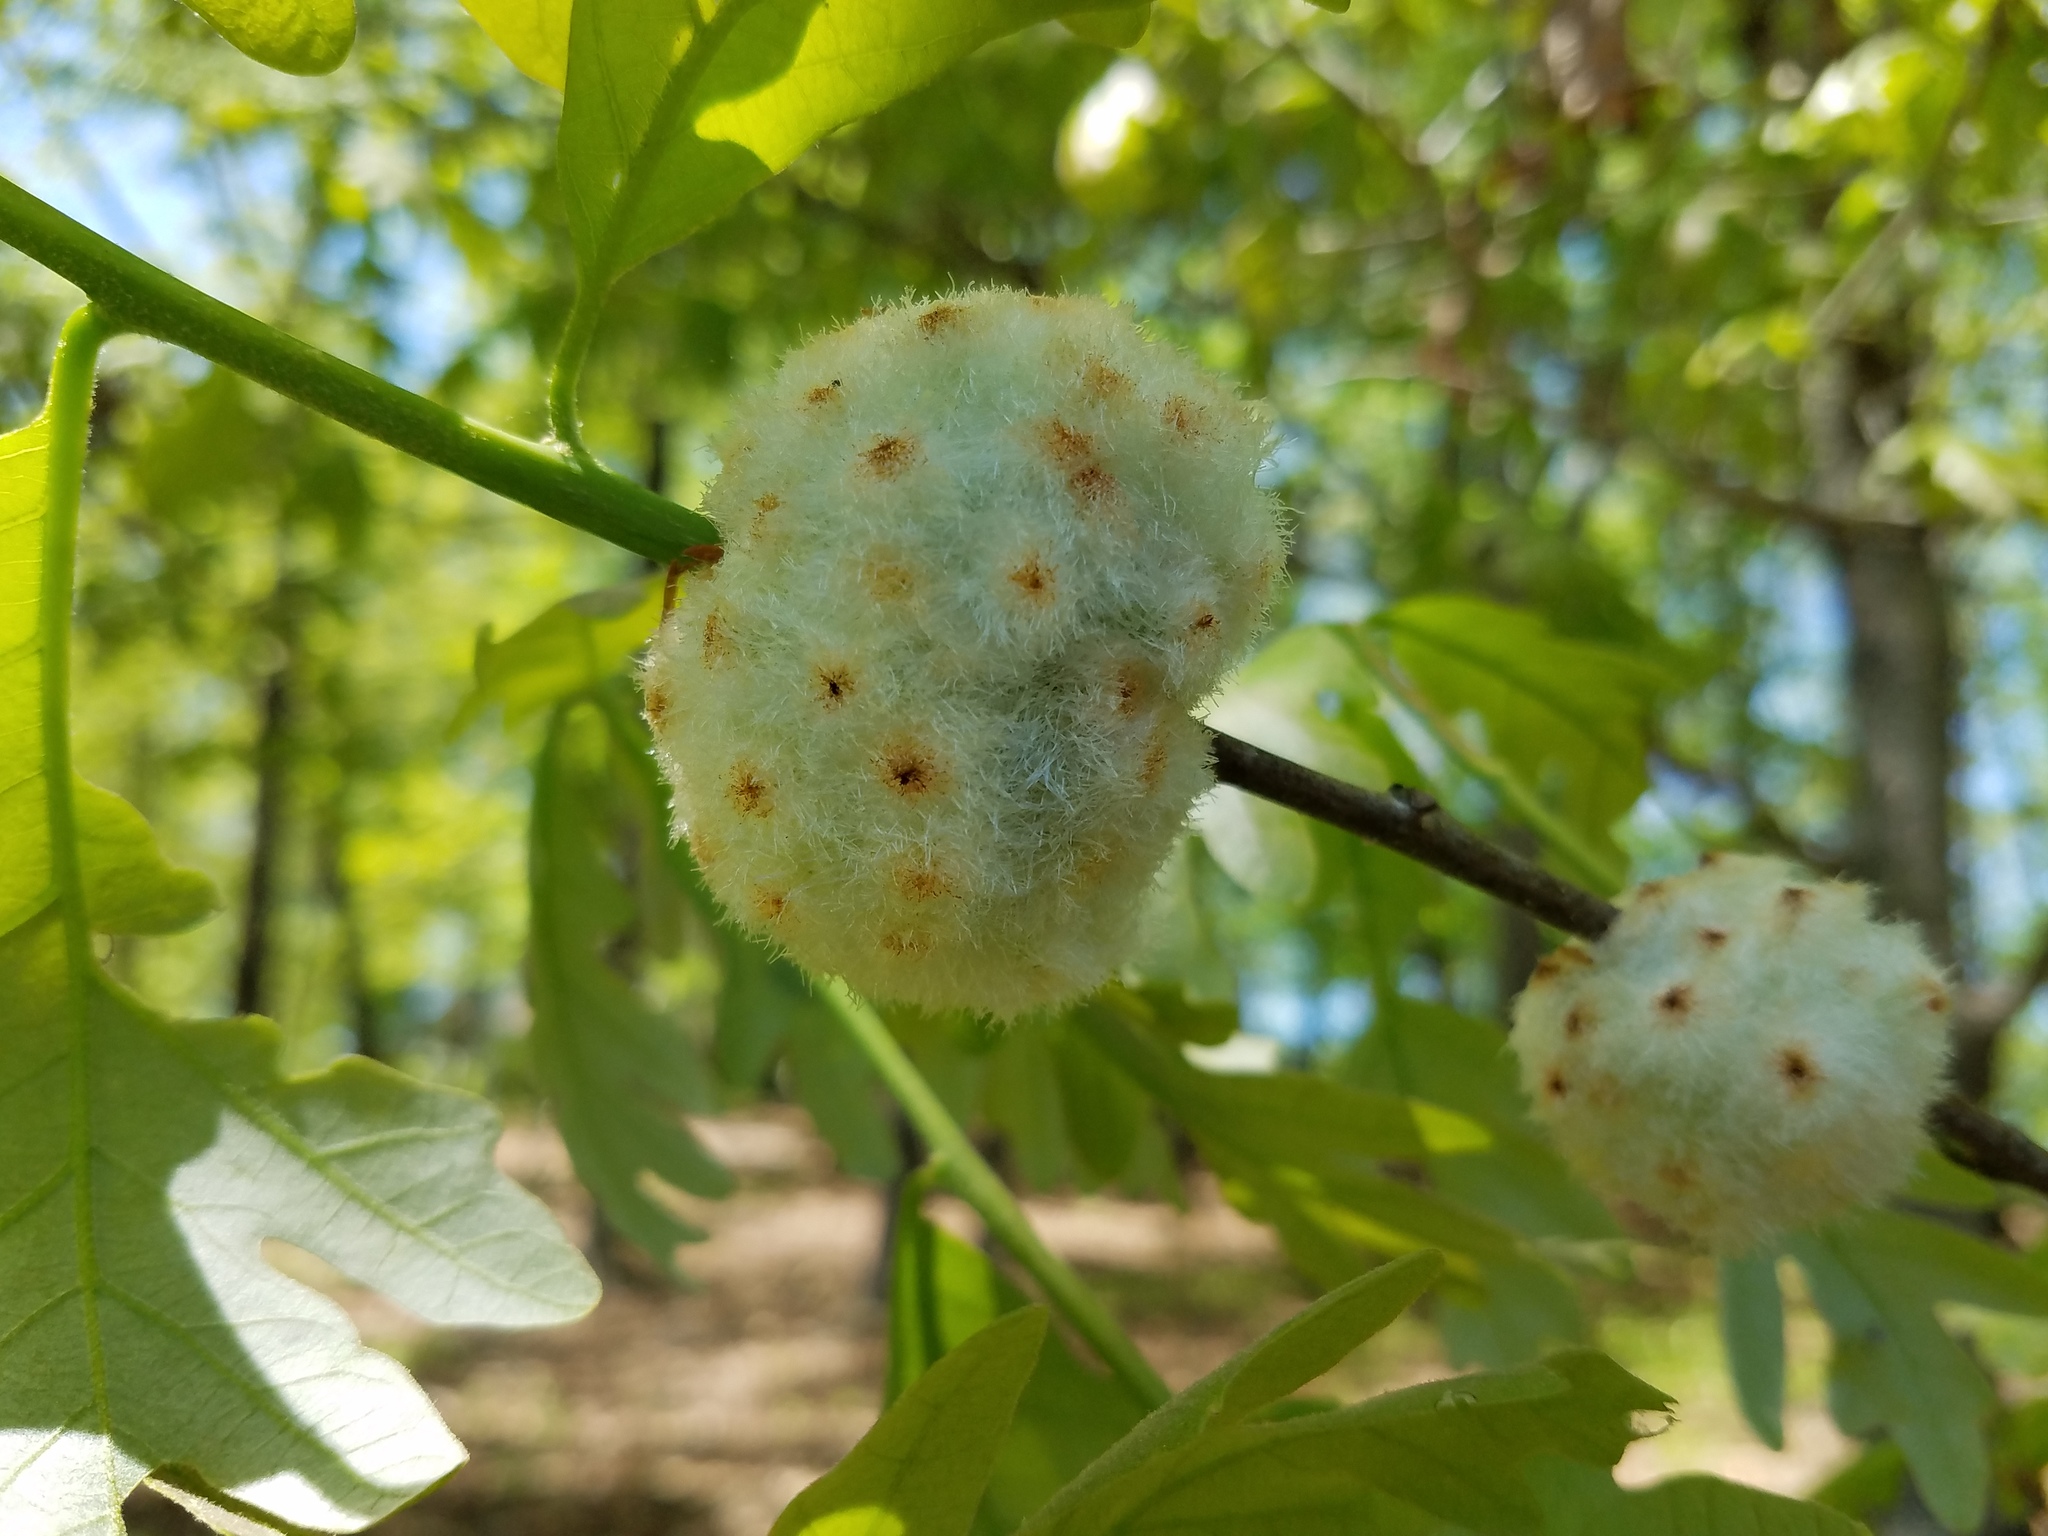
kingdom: Animalia
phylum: Arthropoda
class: Insecta
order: Hymenoptera
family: Cynipidae
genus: Callirhytis
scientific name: Callirhytis
